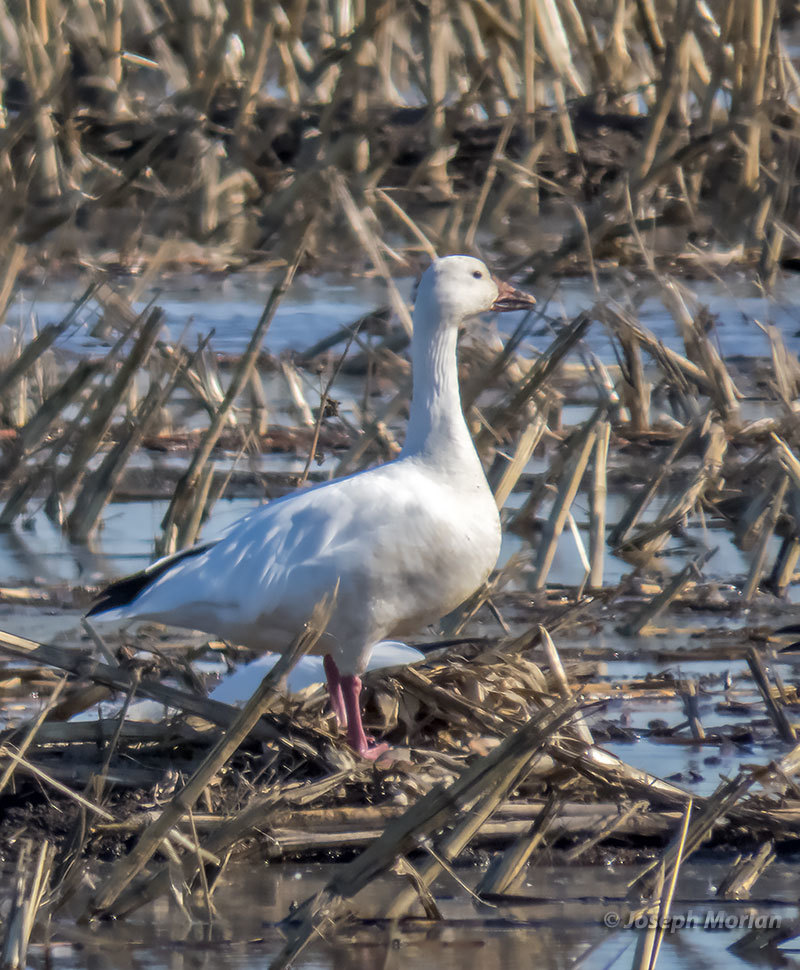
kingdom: Animalia
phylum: Chordata
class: Aves
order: Anseriformes
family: Anatidae
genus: Anser
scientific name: Anser caerulescens
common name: Snow goose
